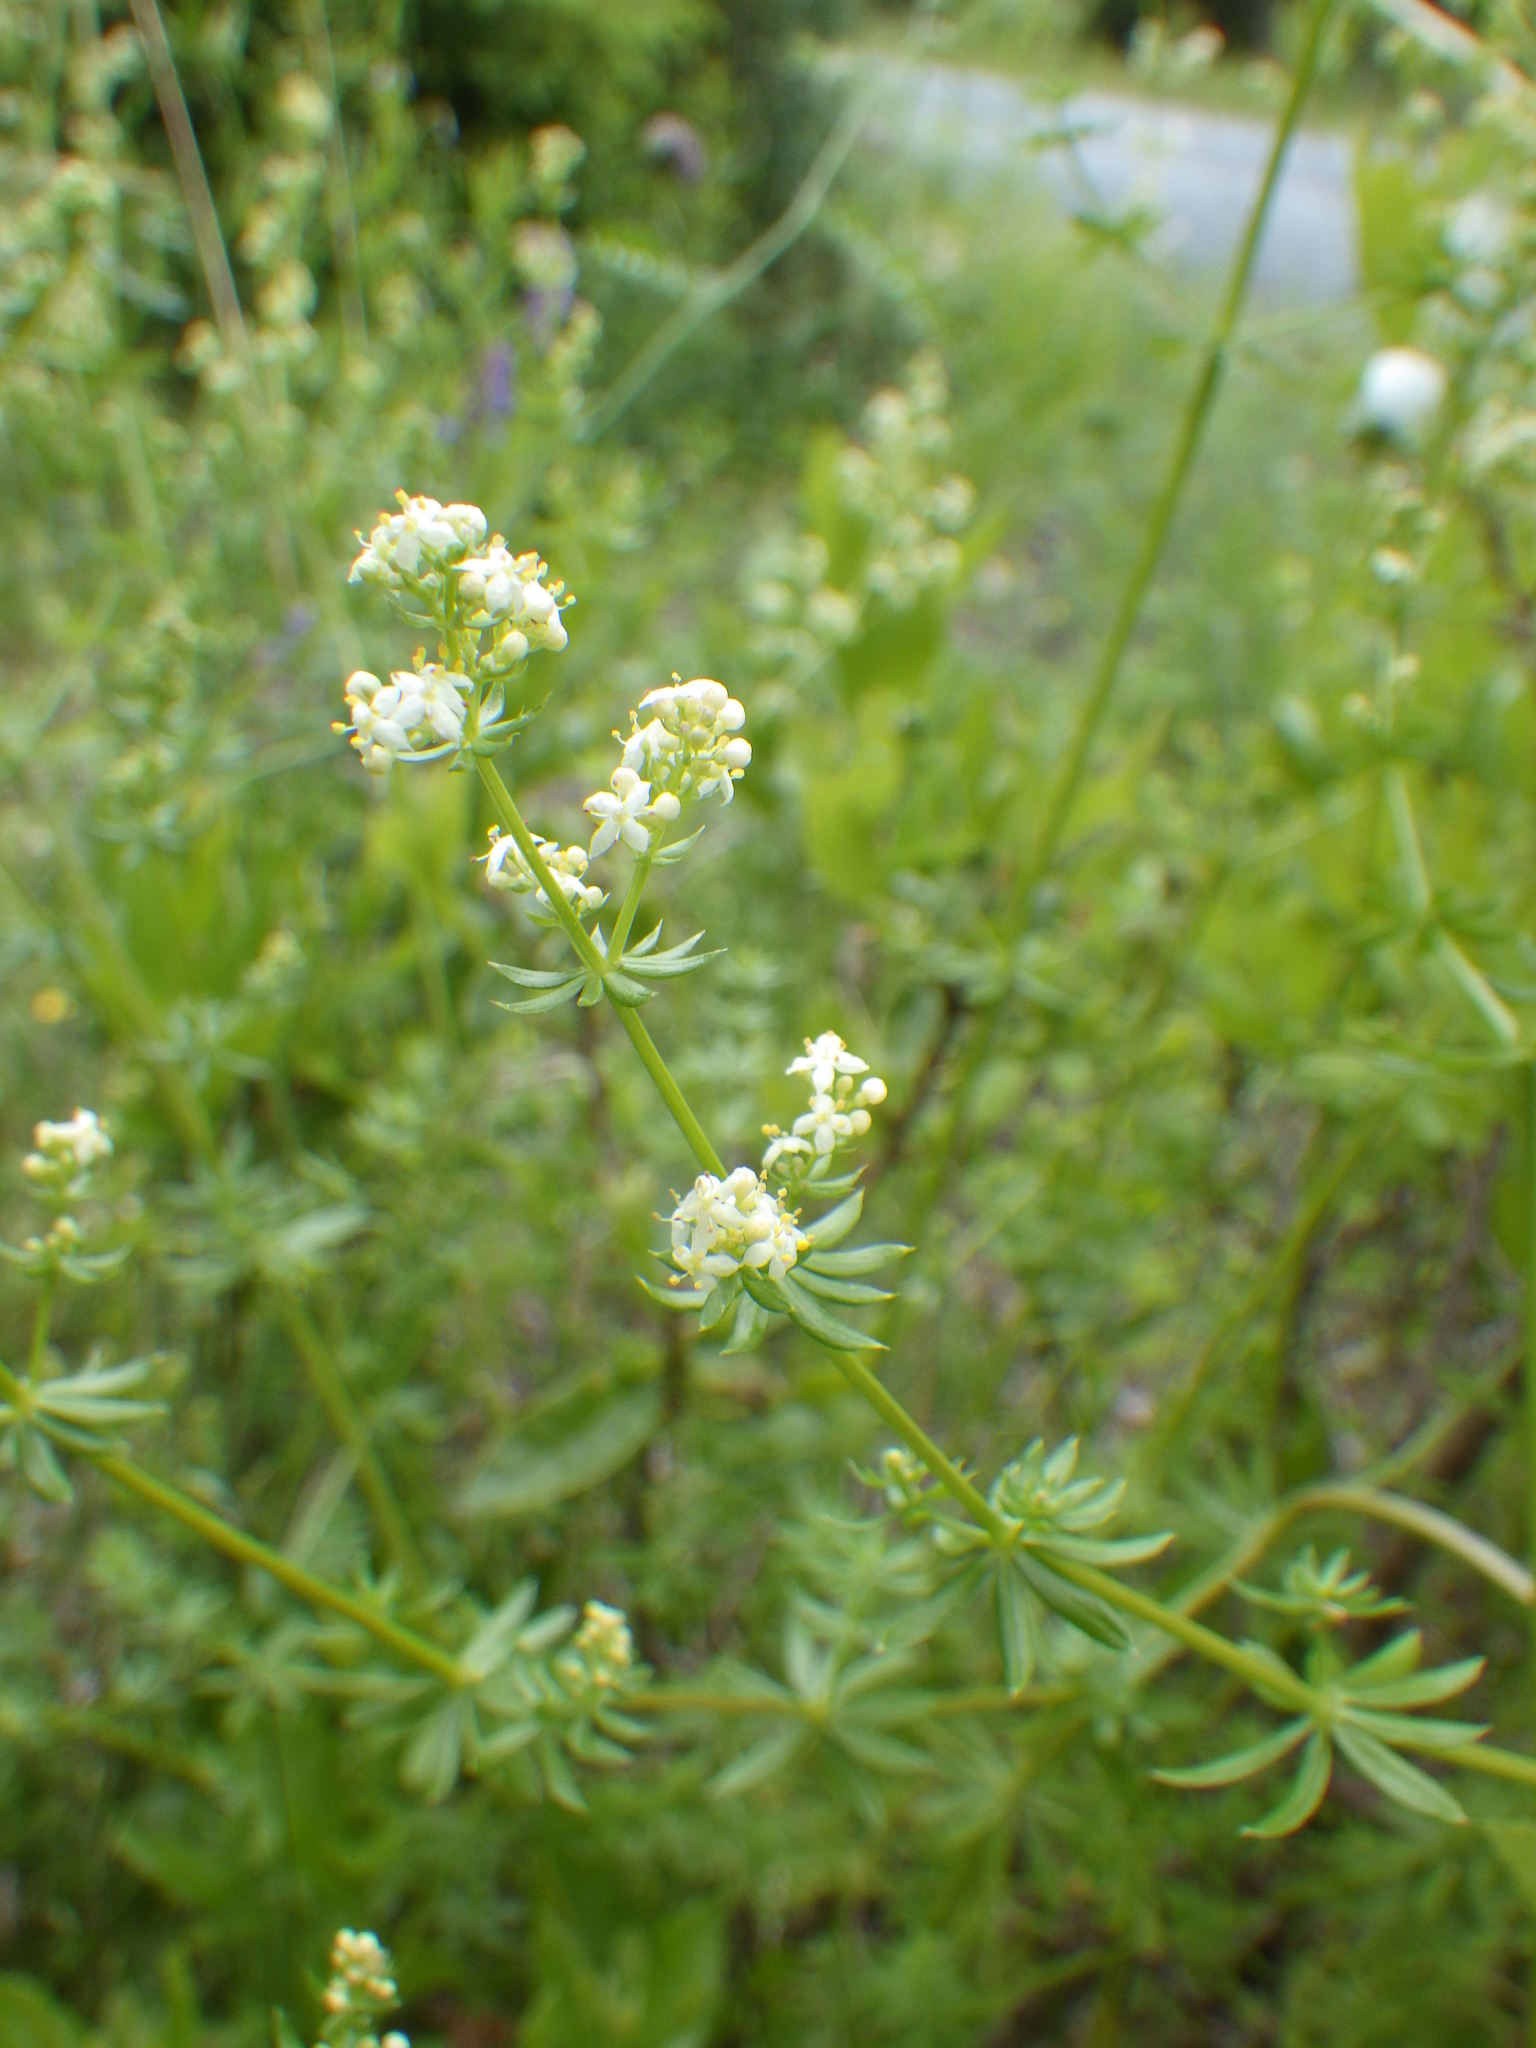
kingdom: Plantae
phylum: Tracheophyta
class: Magnoliopsida
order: Gentianales
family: Rubiaceae
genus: Galium
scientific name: Galium mollugo
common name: Hedge bedstraw
